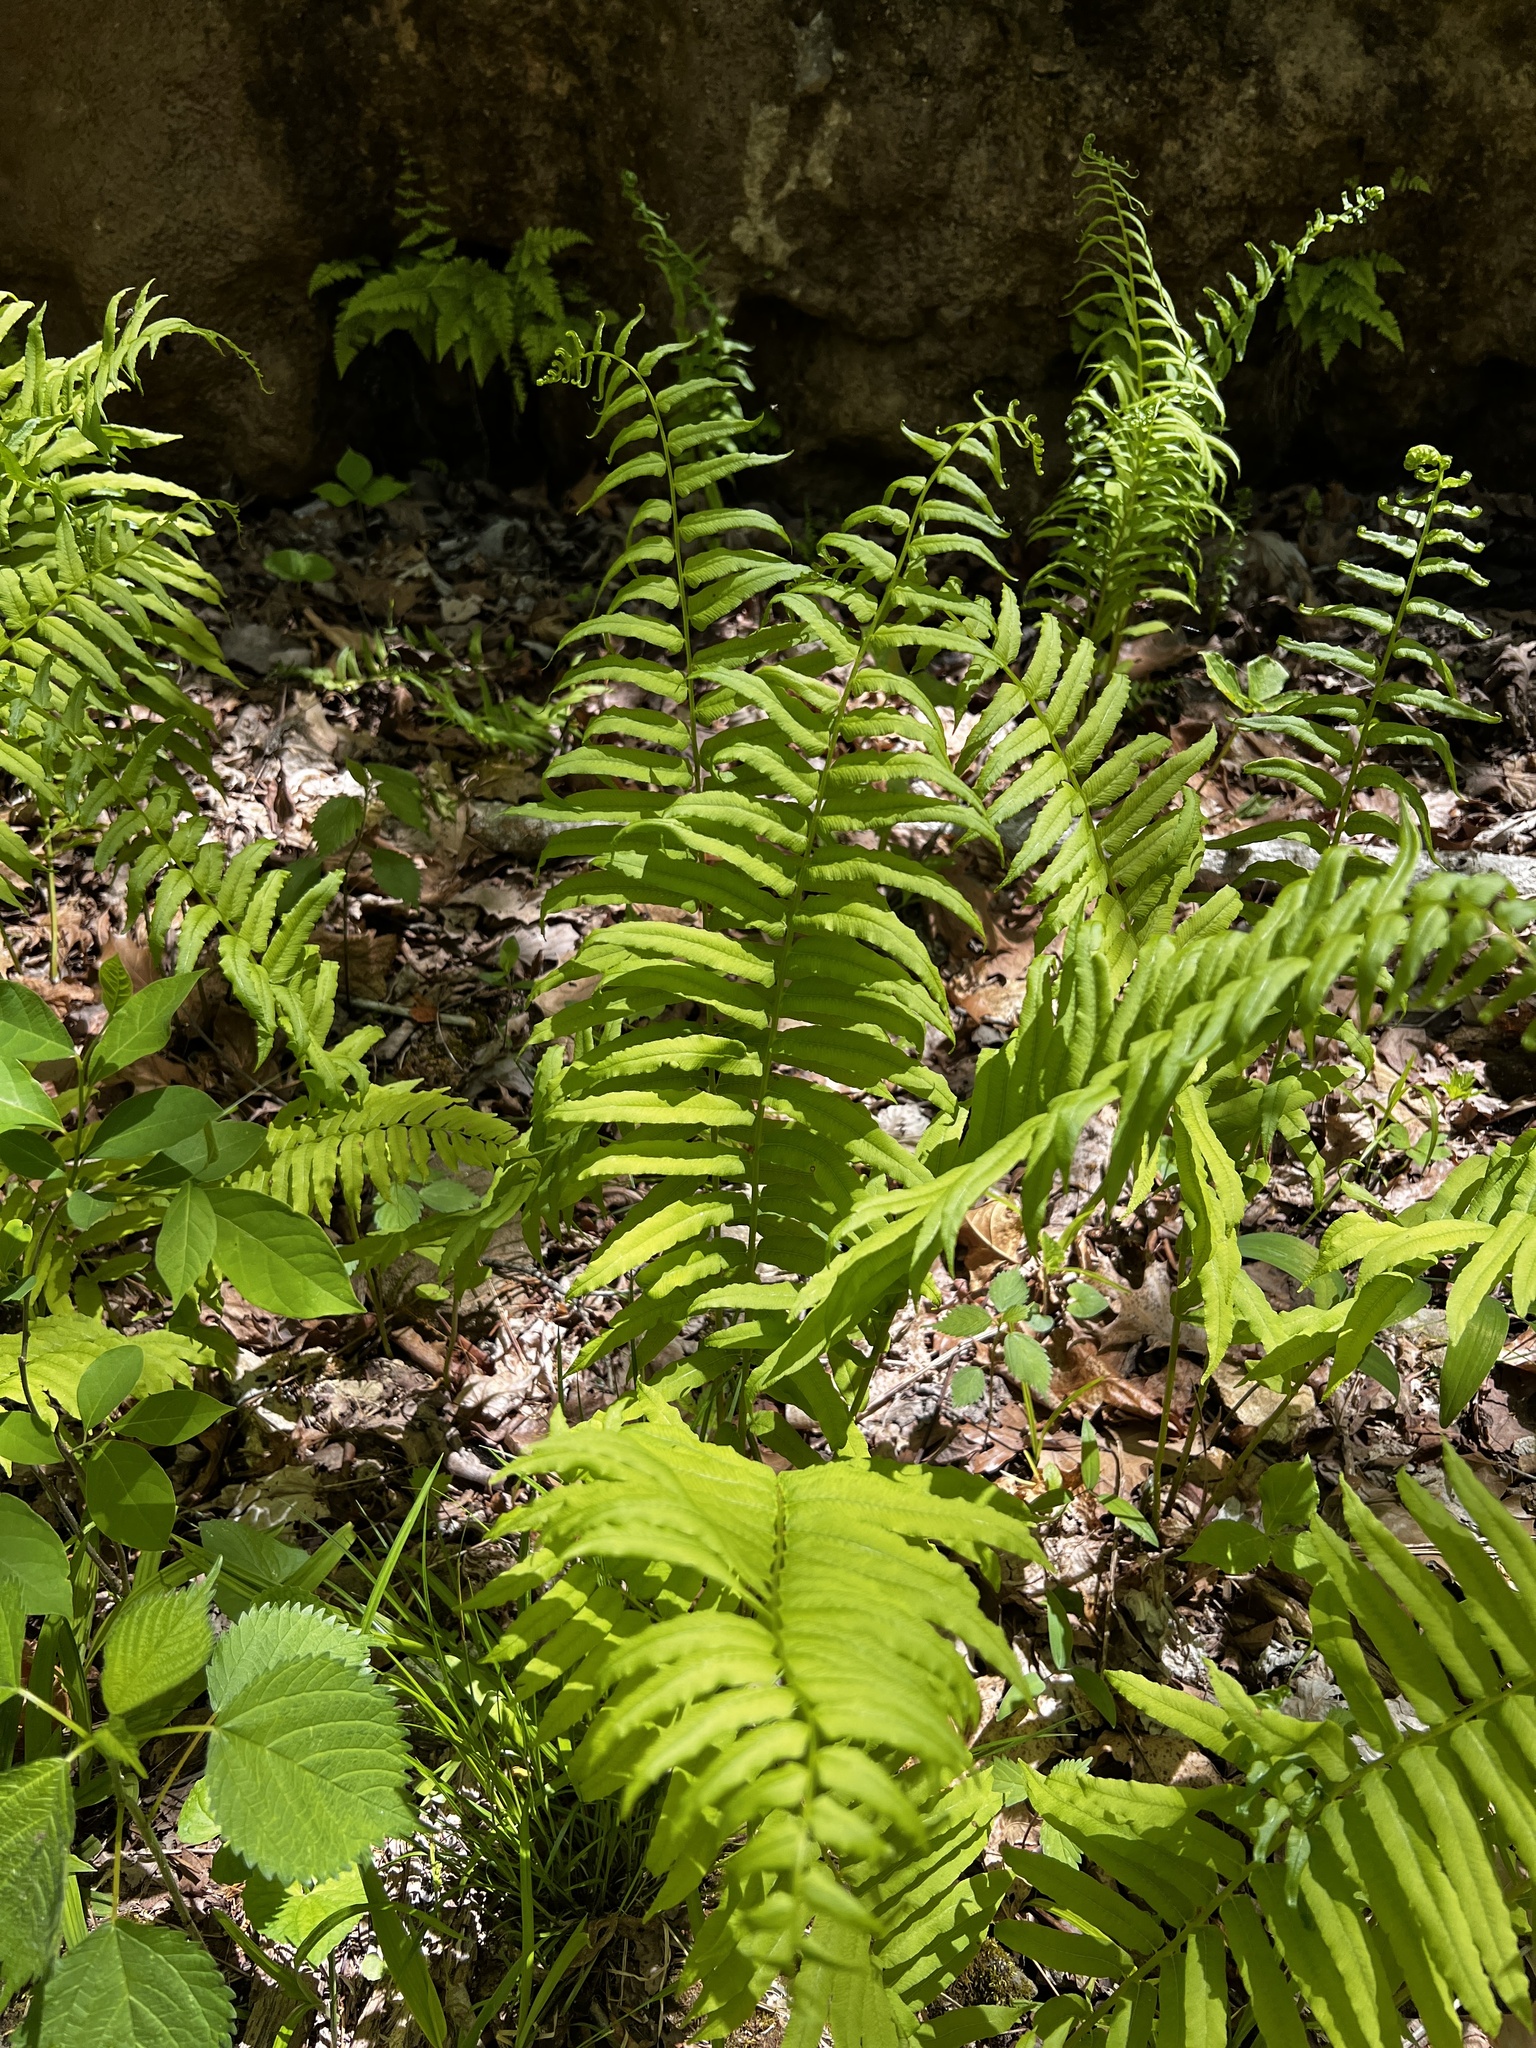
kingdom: Plantae
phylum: Tracheophyta
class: Polypodiopsida
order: Polypodiales
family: Diplaziopsidaceae
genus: Homalosorus
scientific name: Homalosorus pycnocarpos
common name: Glade fern
